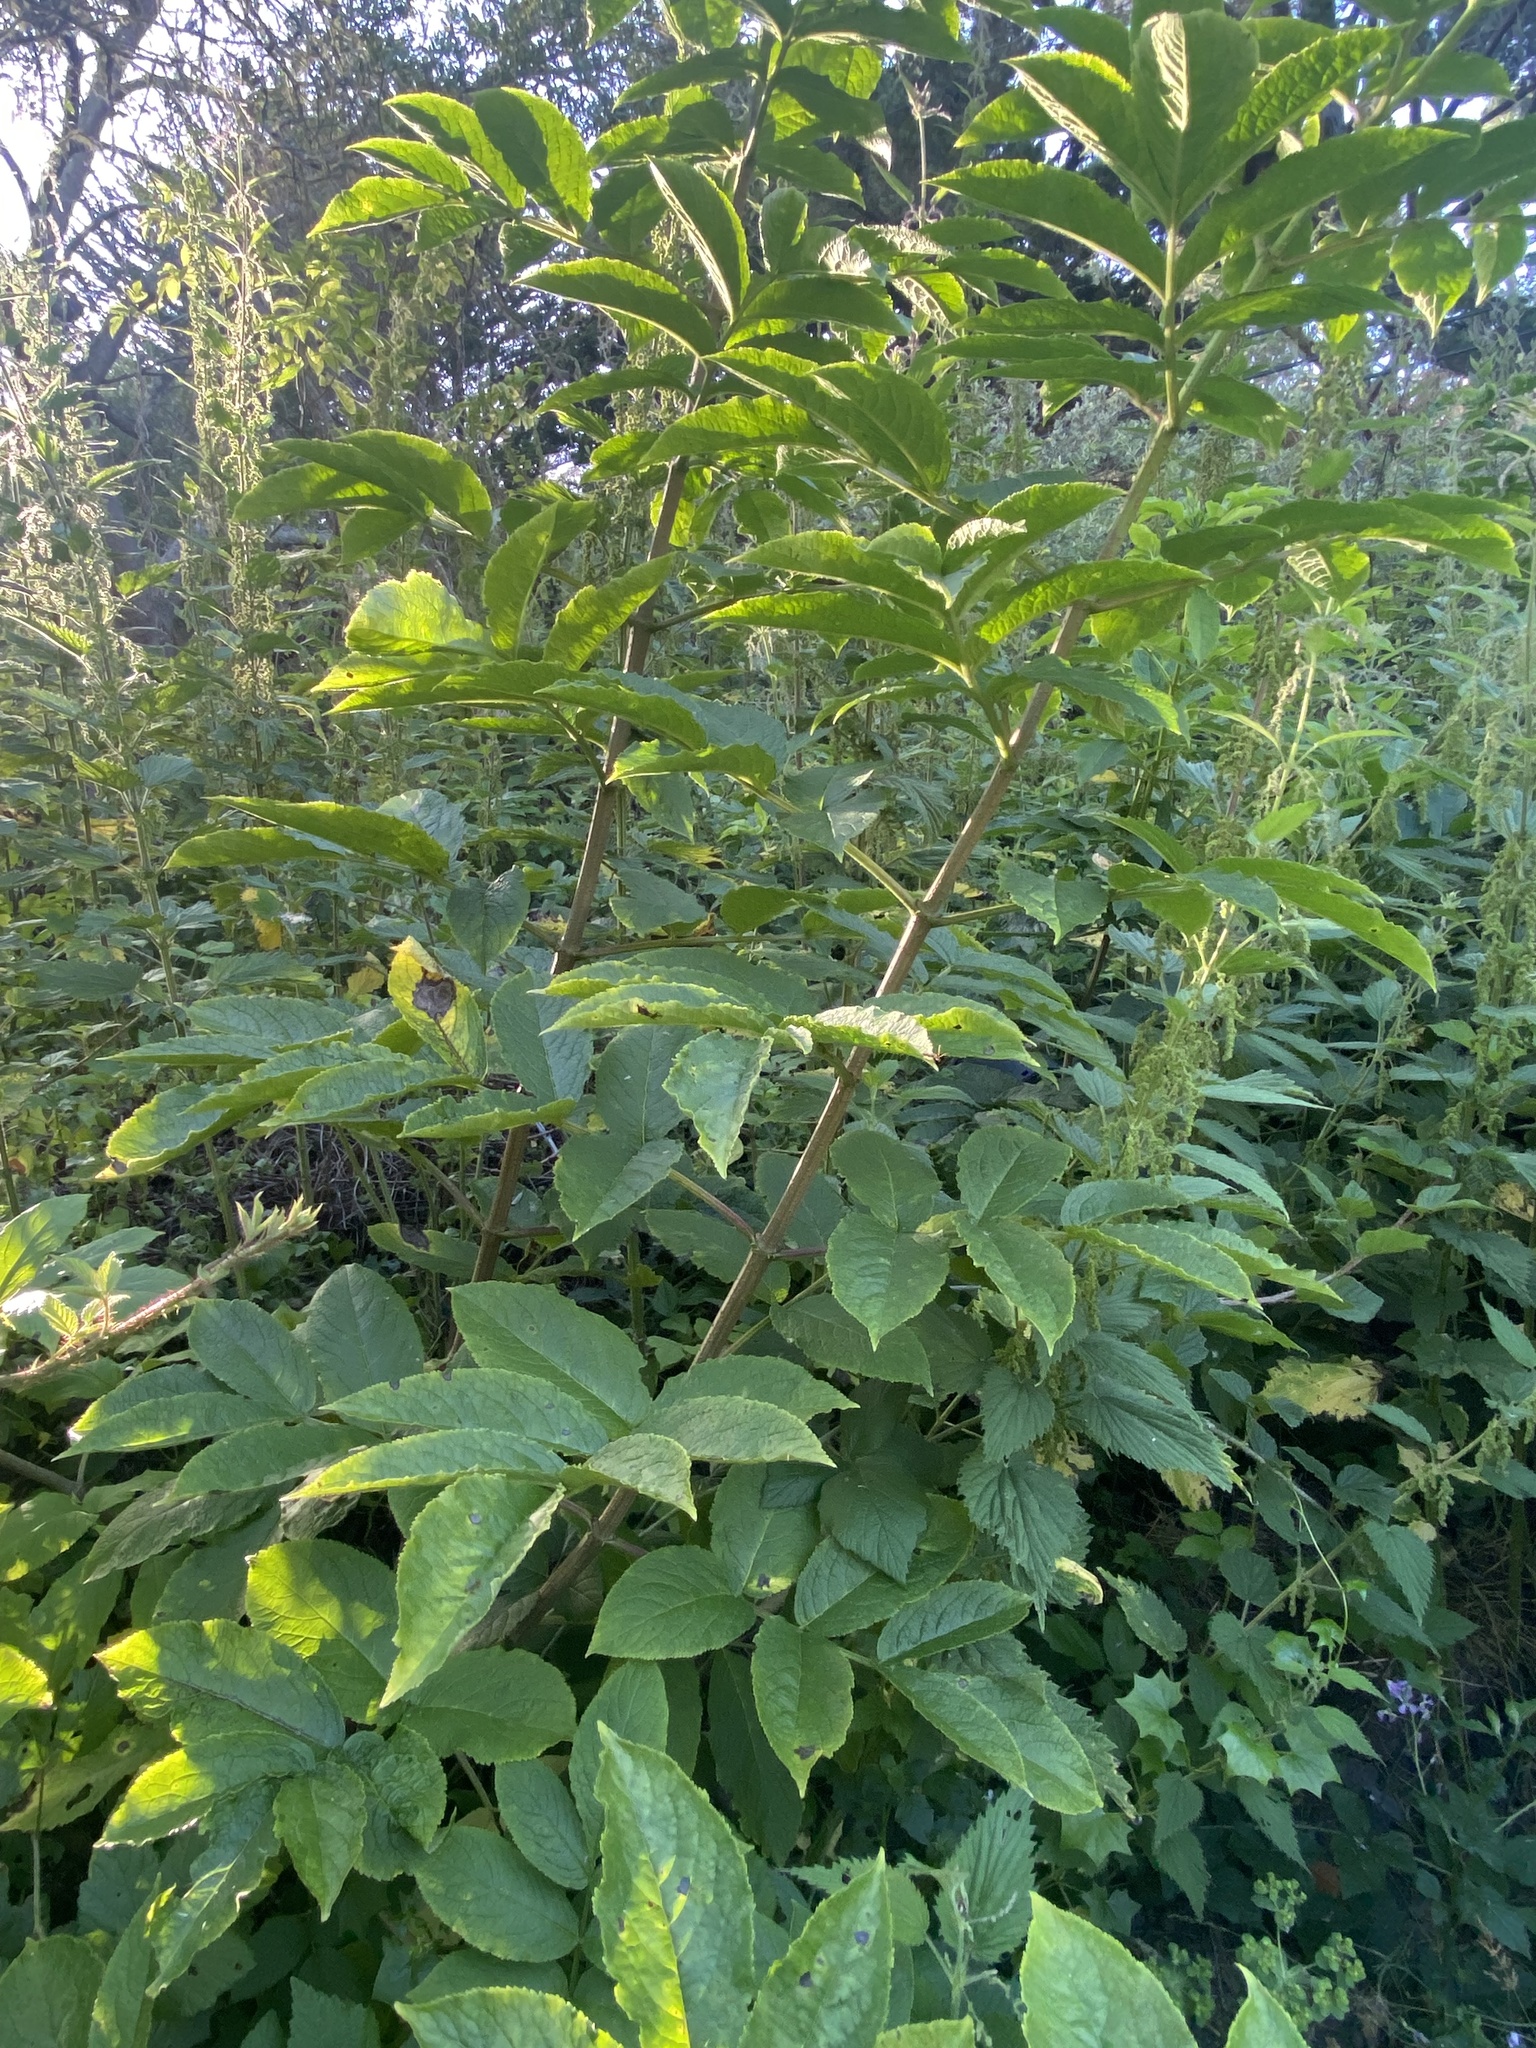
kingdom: Plantae
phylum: Tracheophyta
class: Magnoliopsida
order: Dipsacales
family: Viburnaceae
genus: Sambucus
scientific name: Sambucus racemosa
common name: Red-berried elder
